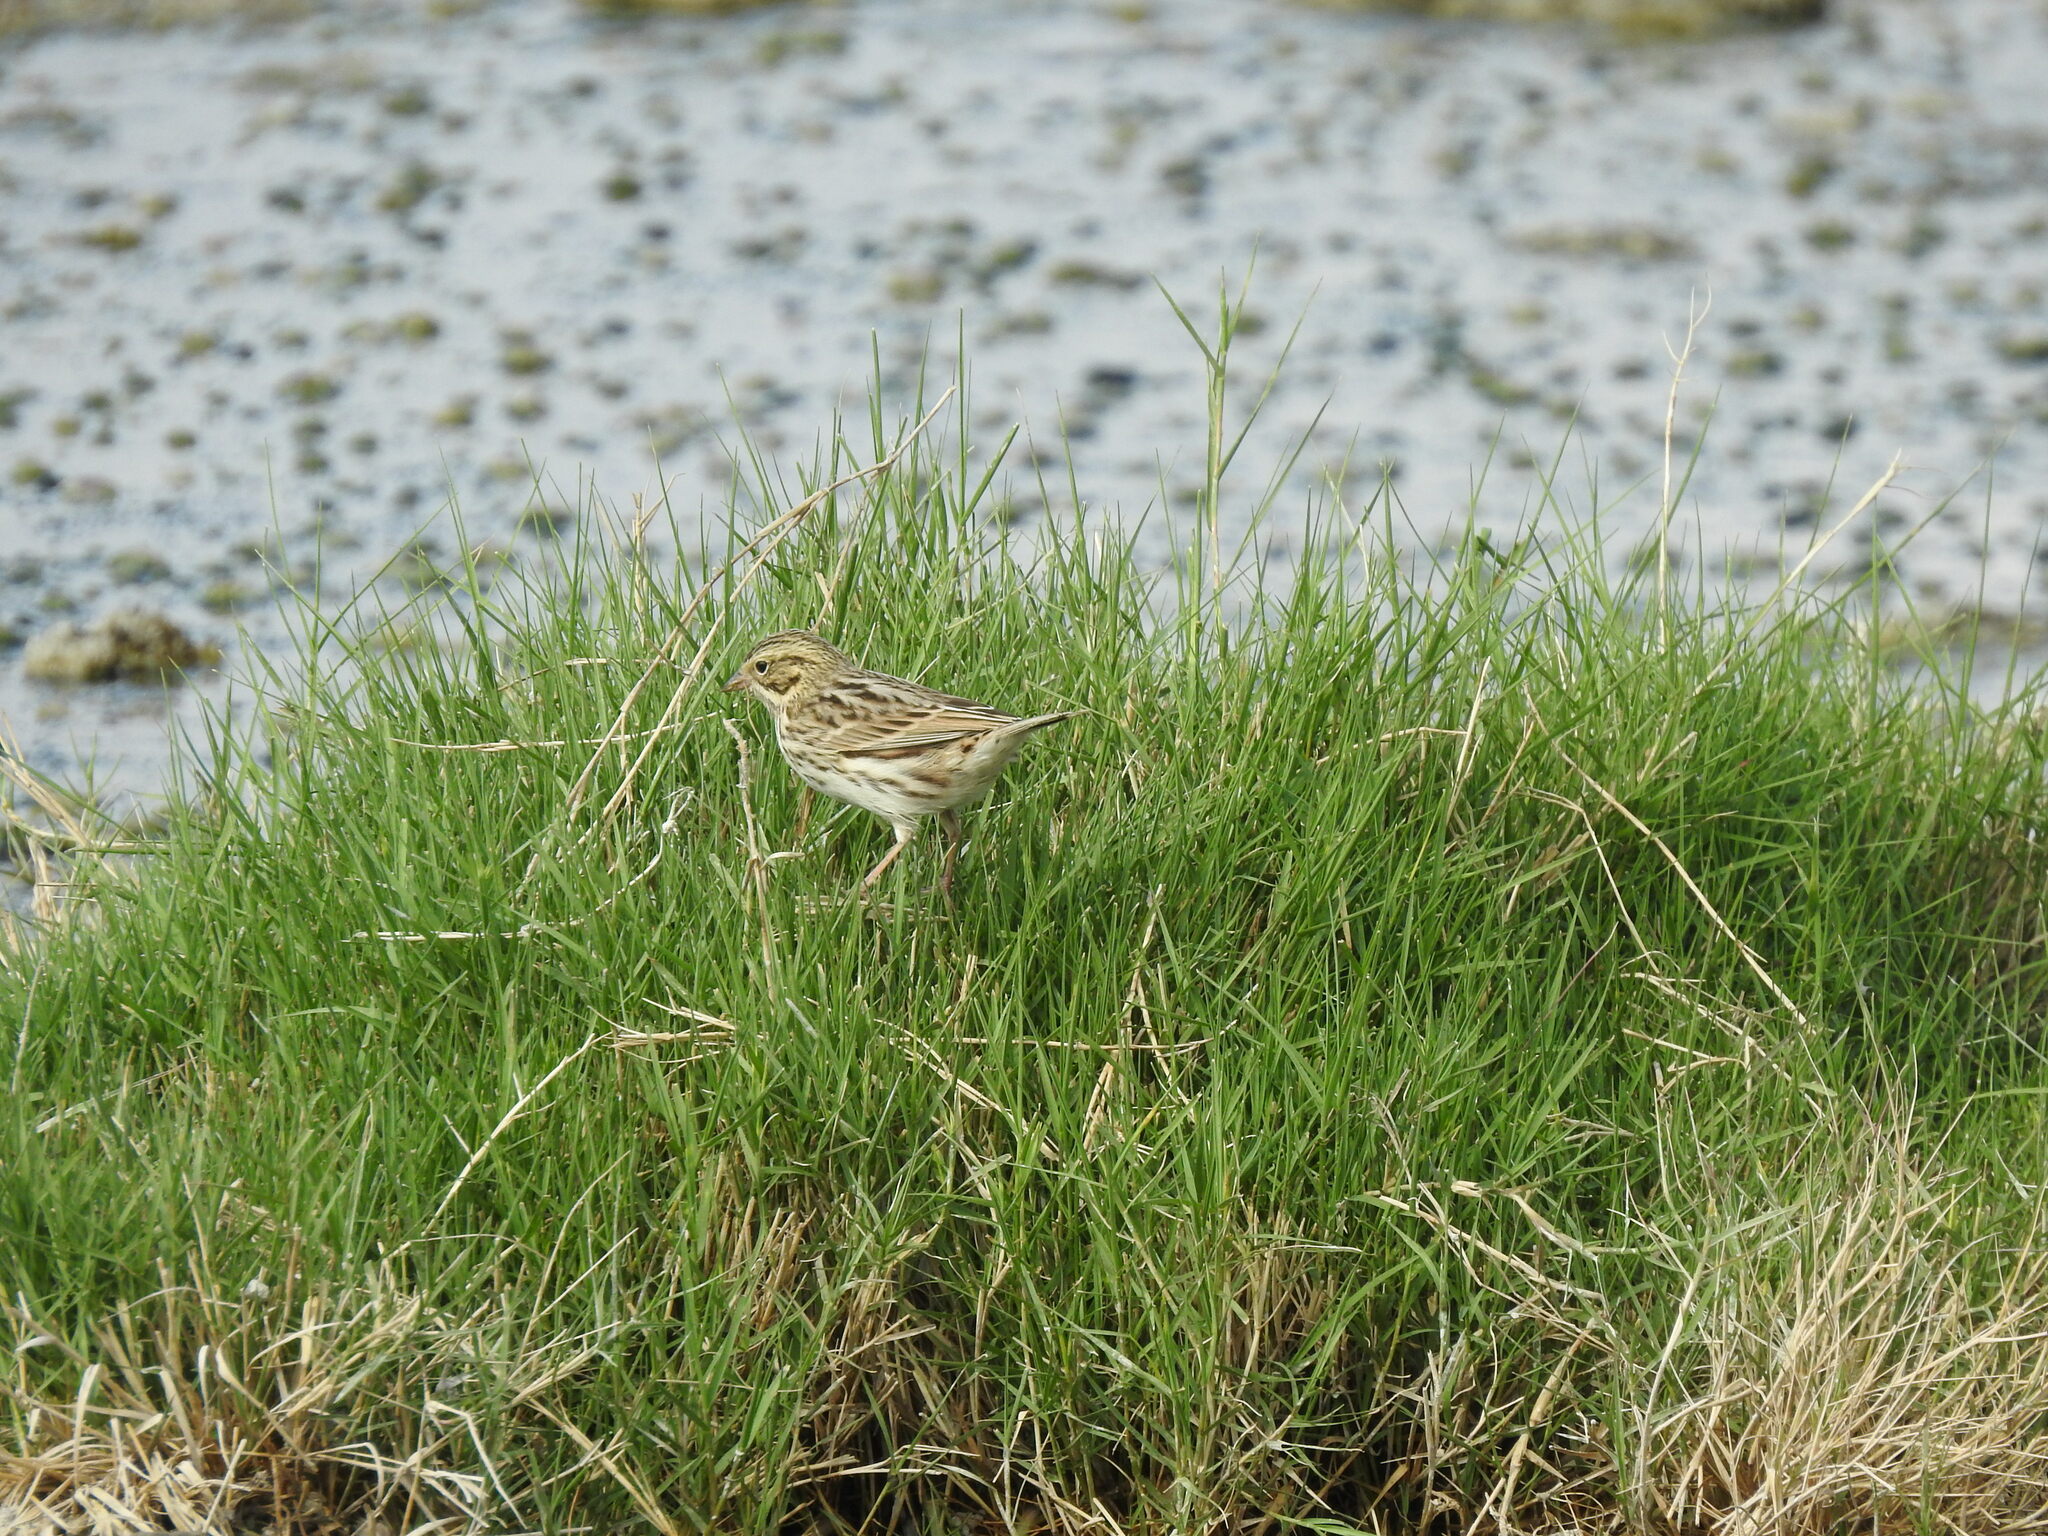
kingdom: Animalia
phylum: Chordata
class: Aves
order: Passeriformes
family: Passerellidae
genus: Passerculus
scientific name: Passerculus sandwichensis
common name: Savannah sparrow
